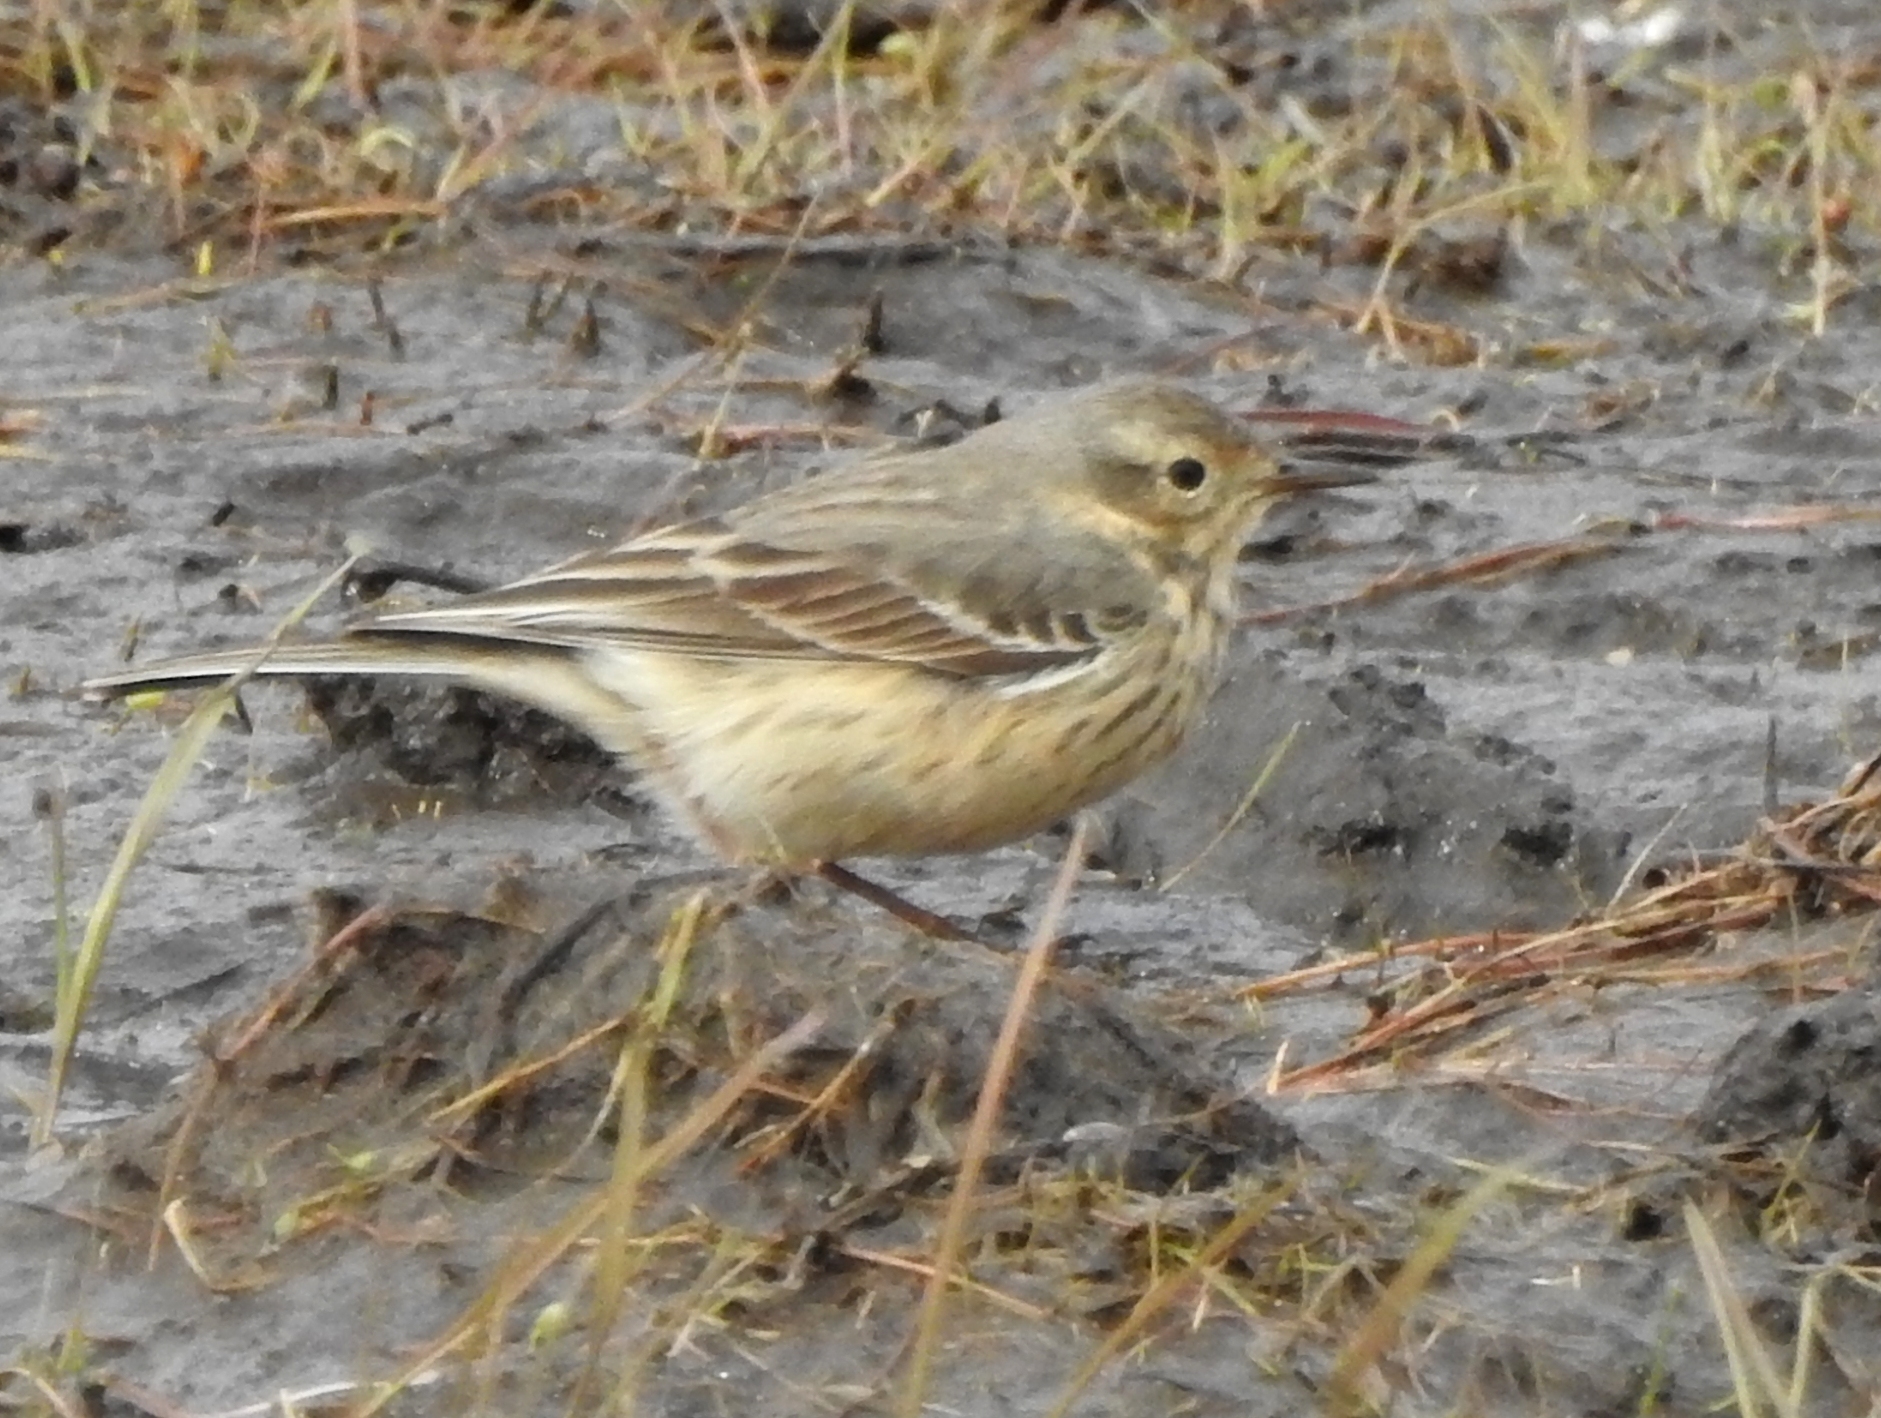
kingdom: Animalia
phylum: Chordata
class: Aves
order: Passeriformes
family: Motacillidae
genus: Anthus
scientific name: Anthus rubescens
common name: Buff-bellied pipit
